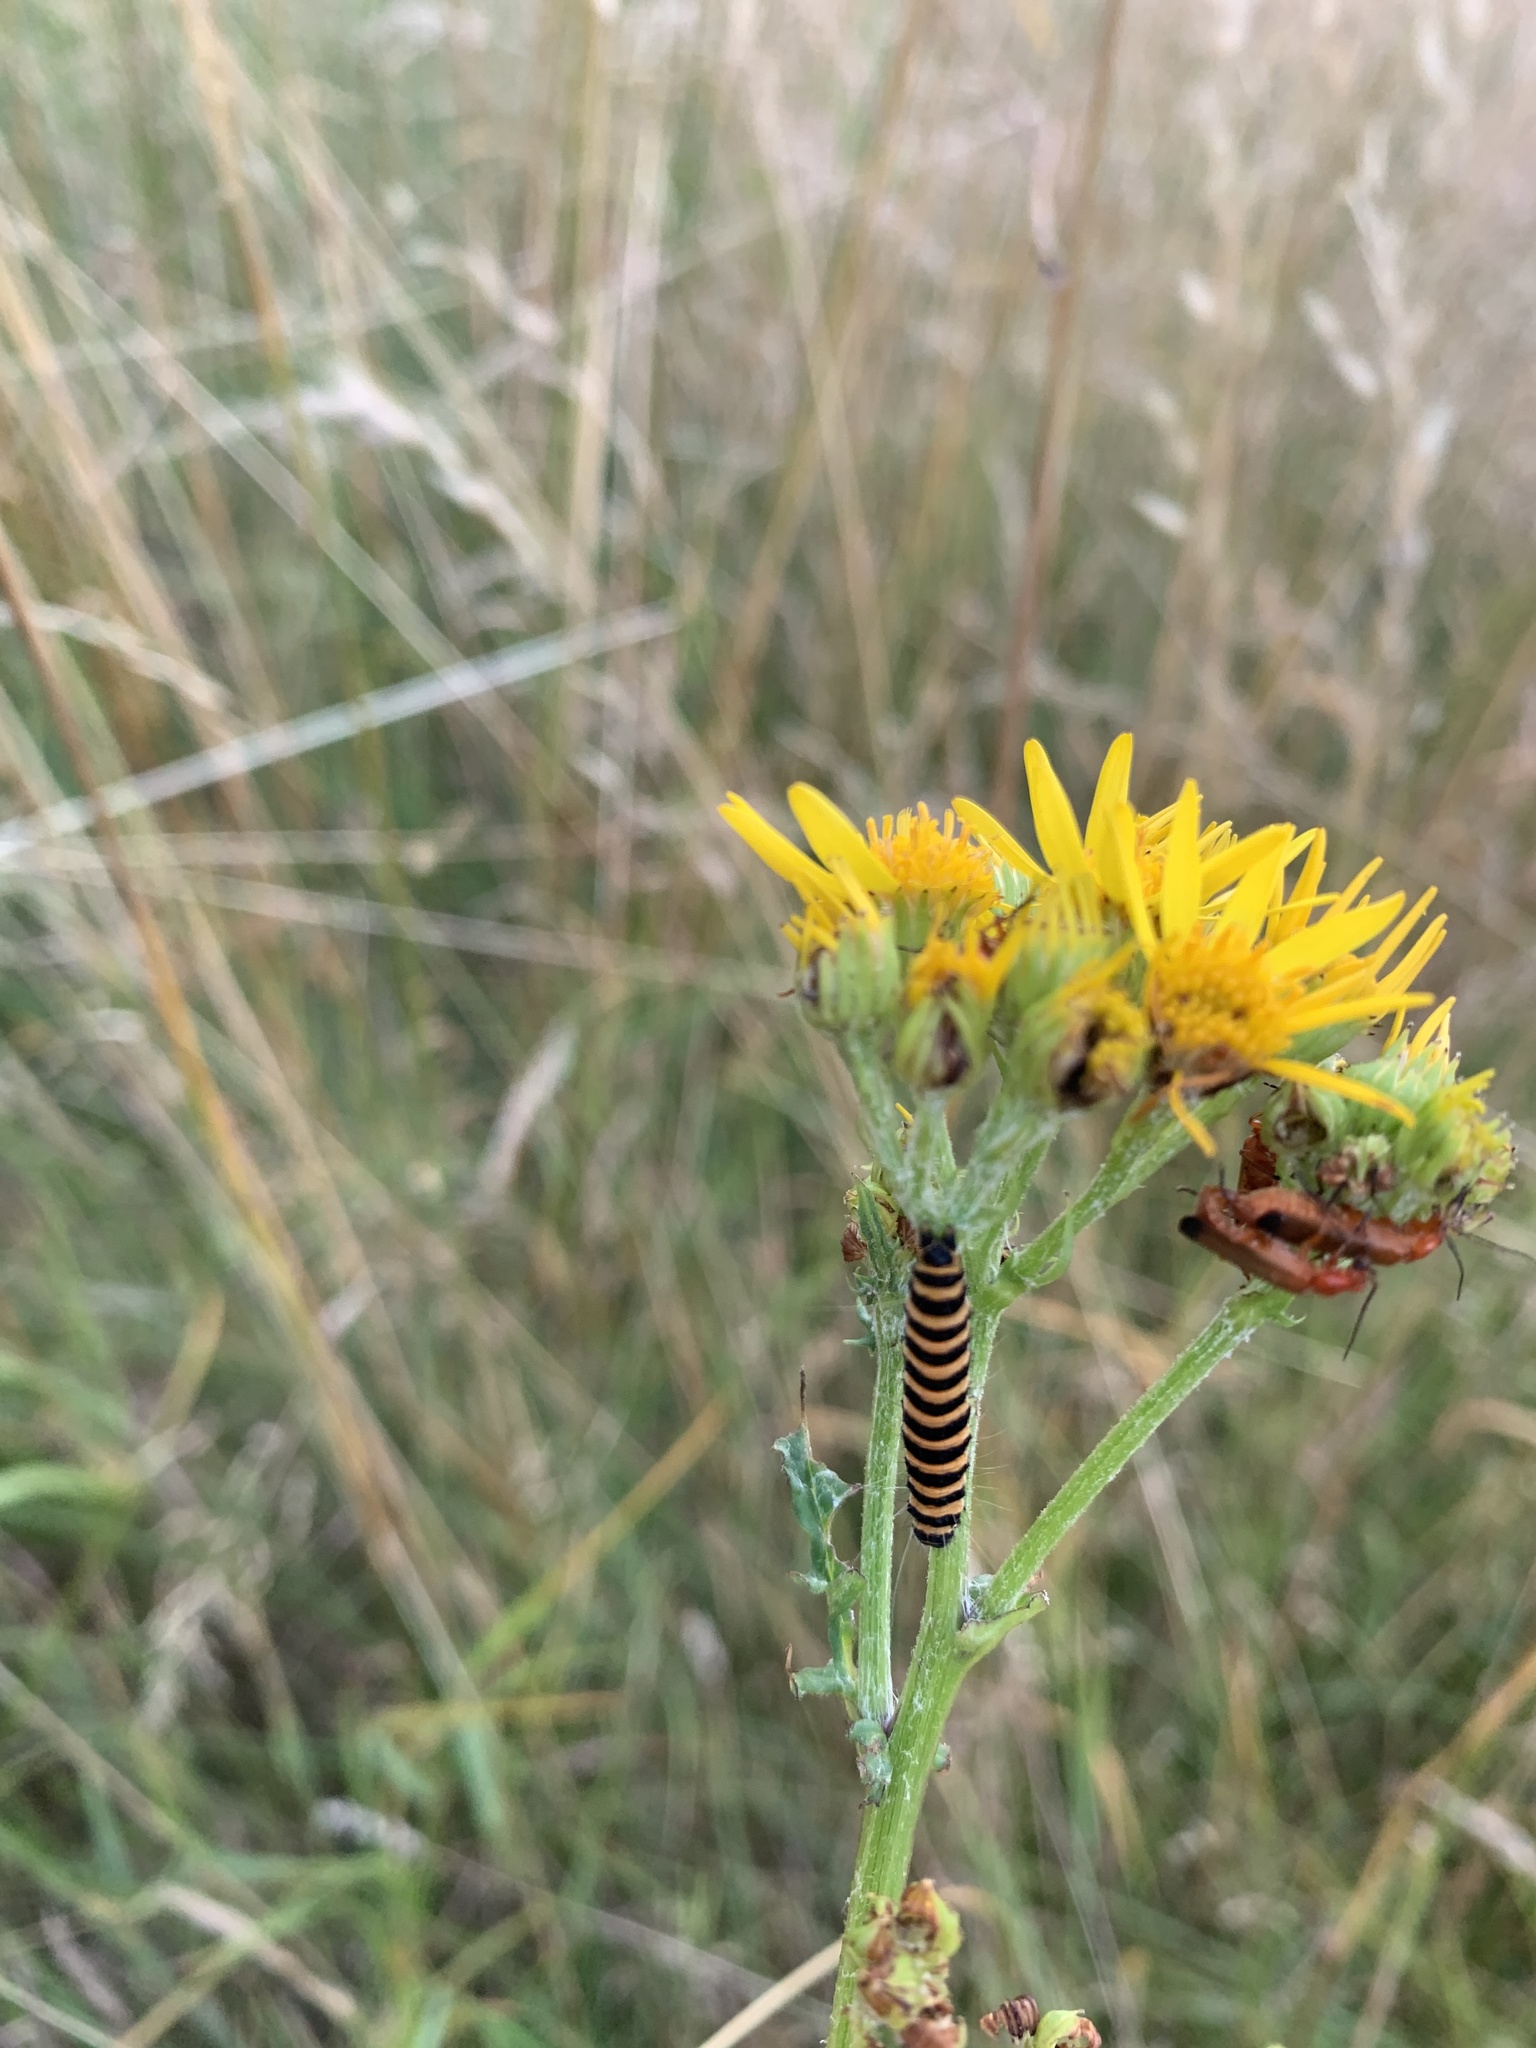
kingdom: Animalia
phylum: Arthropoda
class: Insecta
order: Lepidoptera
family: Erebidae
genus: Tyria
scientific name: Tyria jacobaeae
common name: Cinnabar
